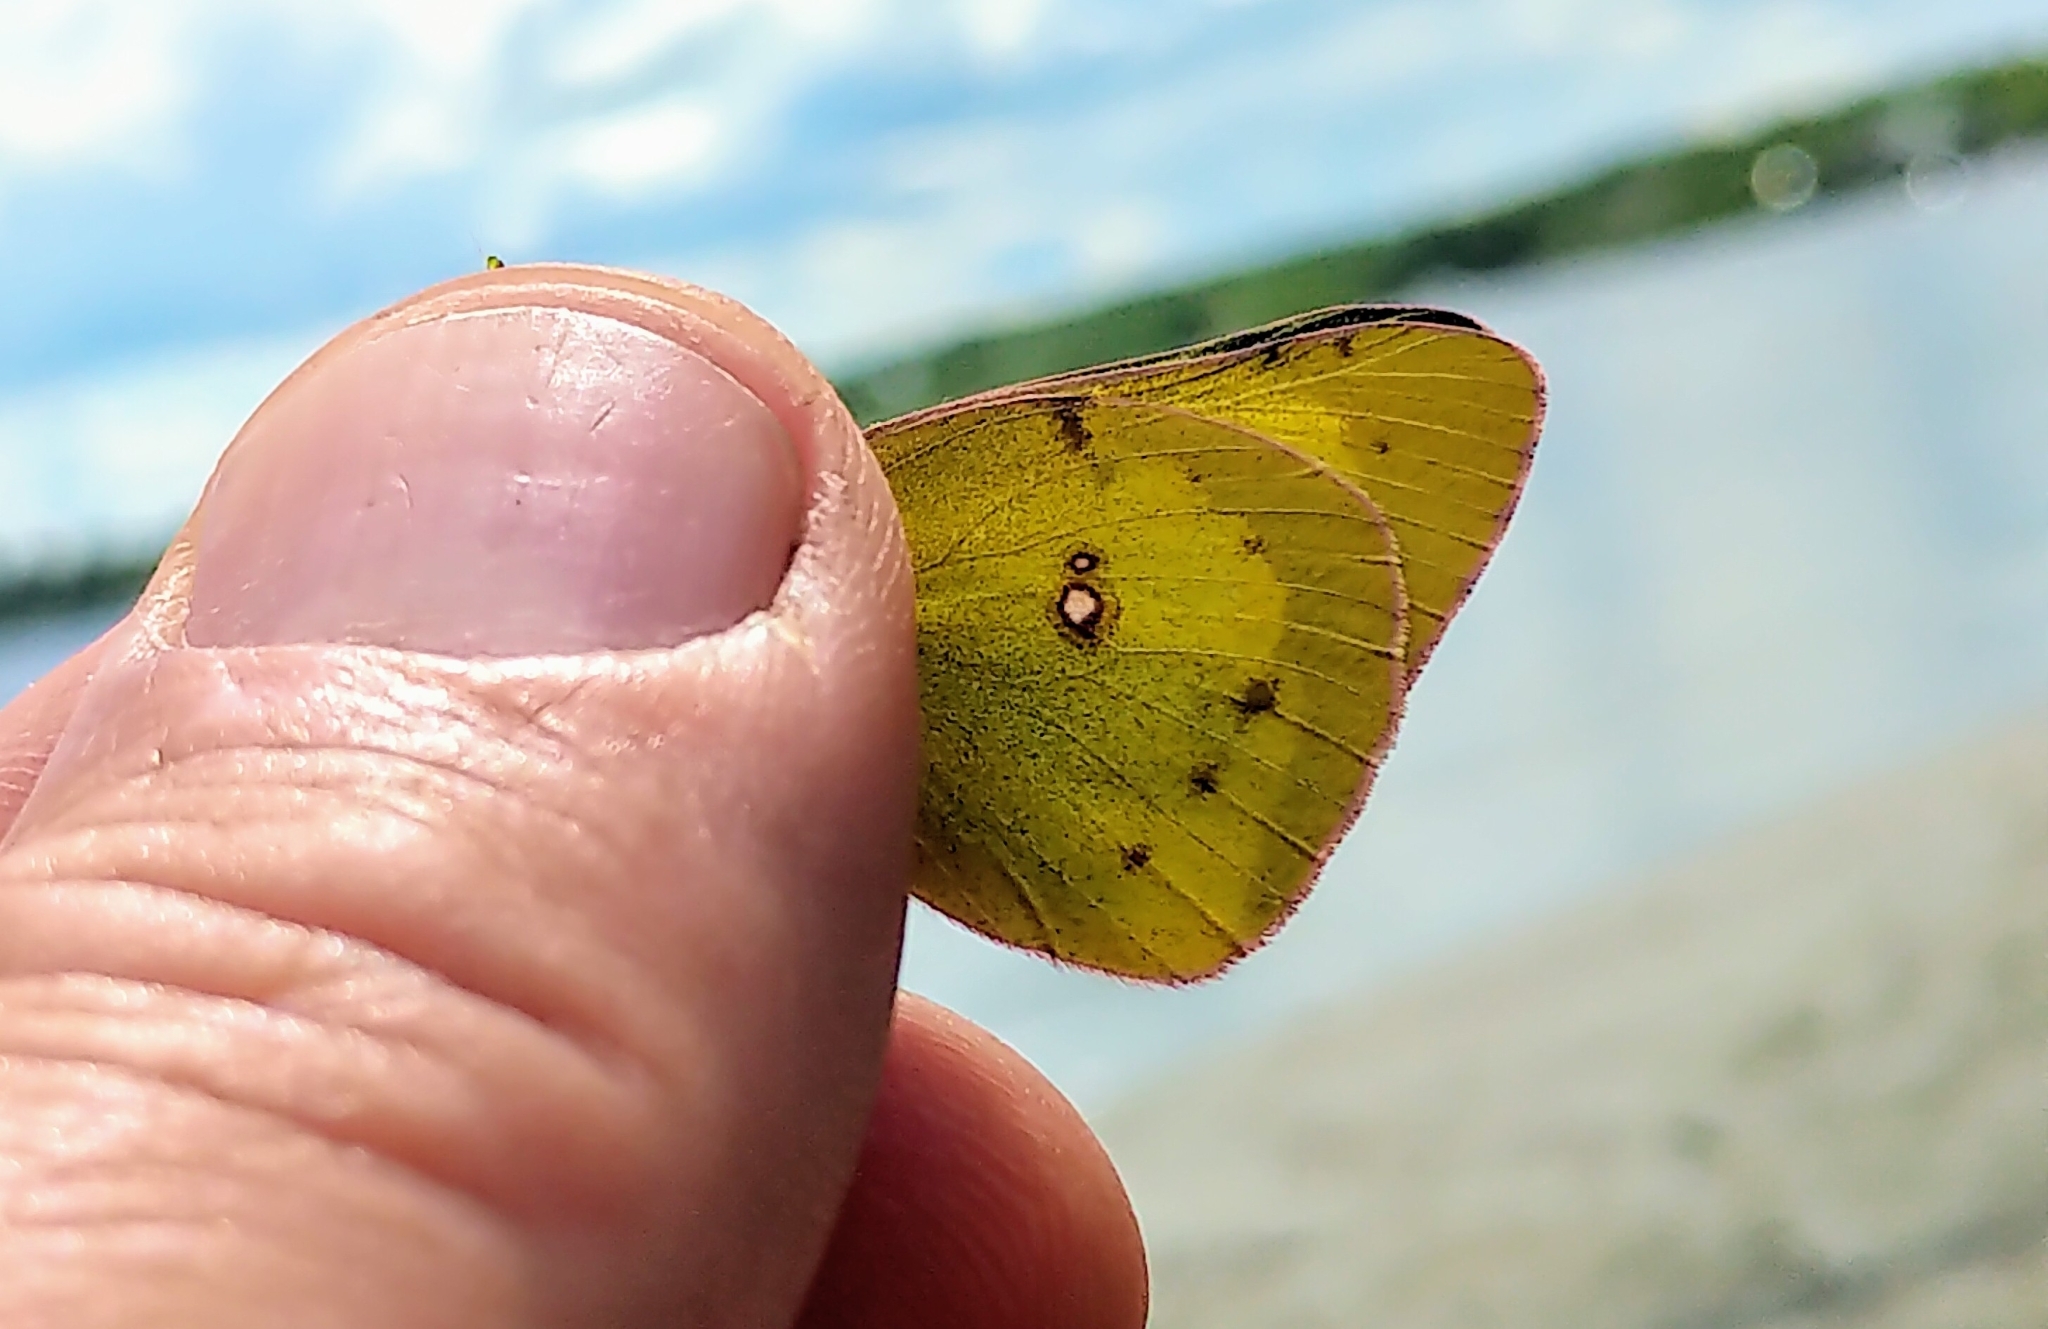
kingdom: Animalia
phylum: Arthropoda
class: Insecta
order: Lepidoptera
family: Pieridae
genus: Colias
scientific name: Colias philodice
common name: Clouded sulphur
